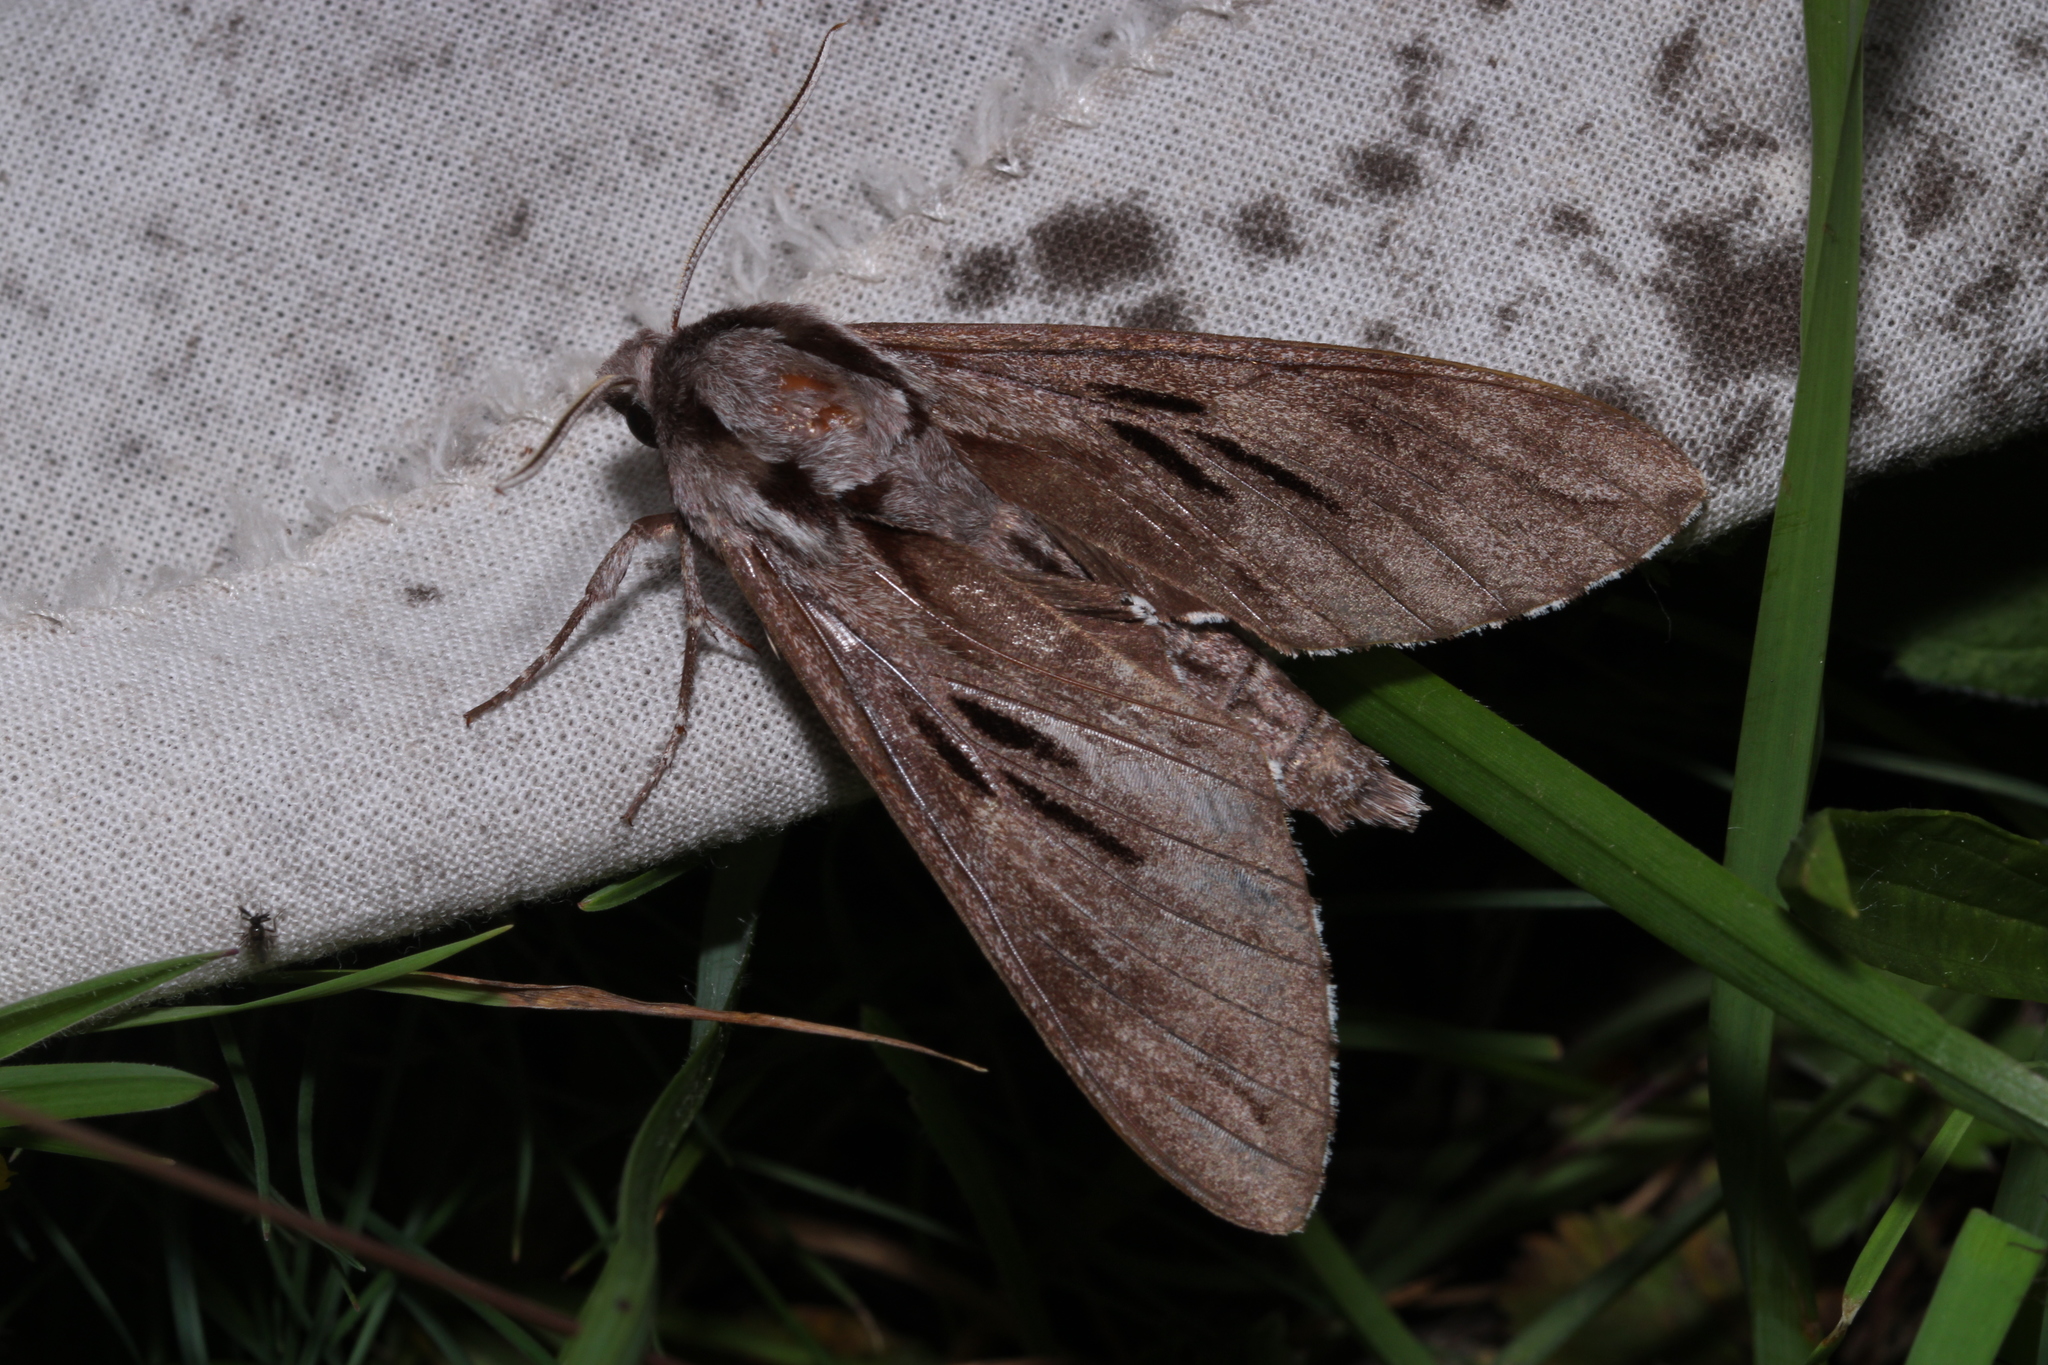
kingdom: Animalia
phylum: Arthropoda
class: Insecta
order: Lepidoptera
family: Sphingidae
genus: Sphinx
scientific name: Sphinx pinastri
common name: Pine hawk-moth
